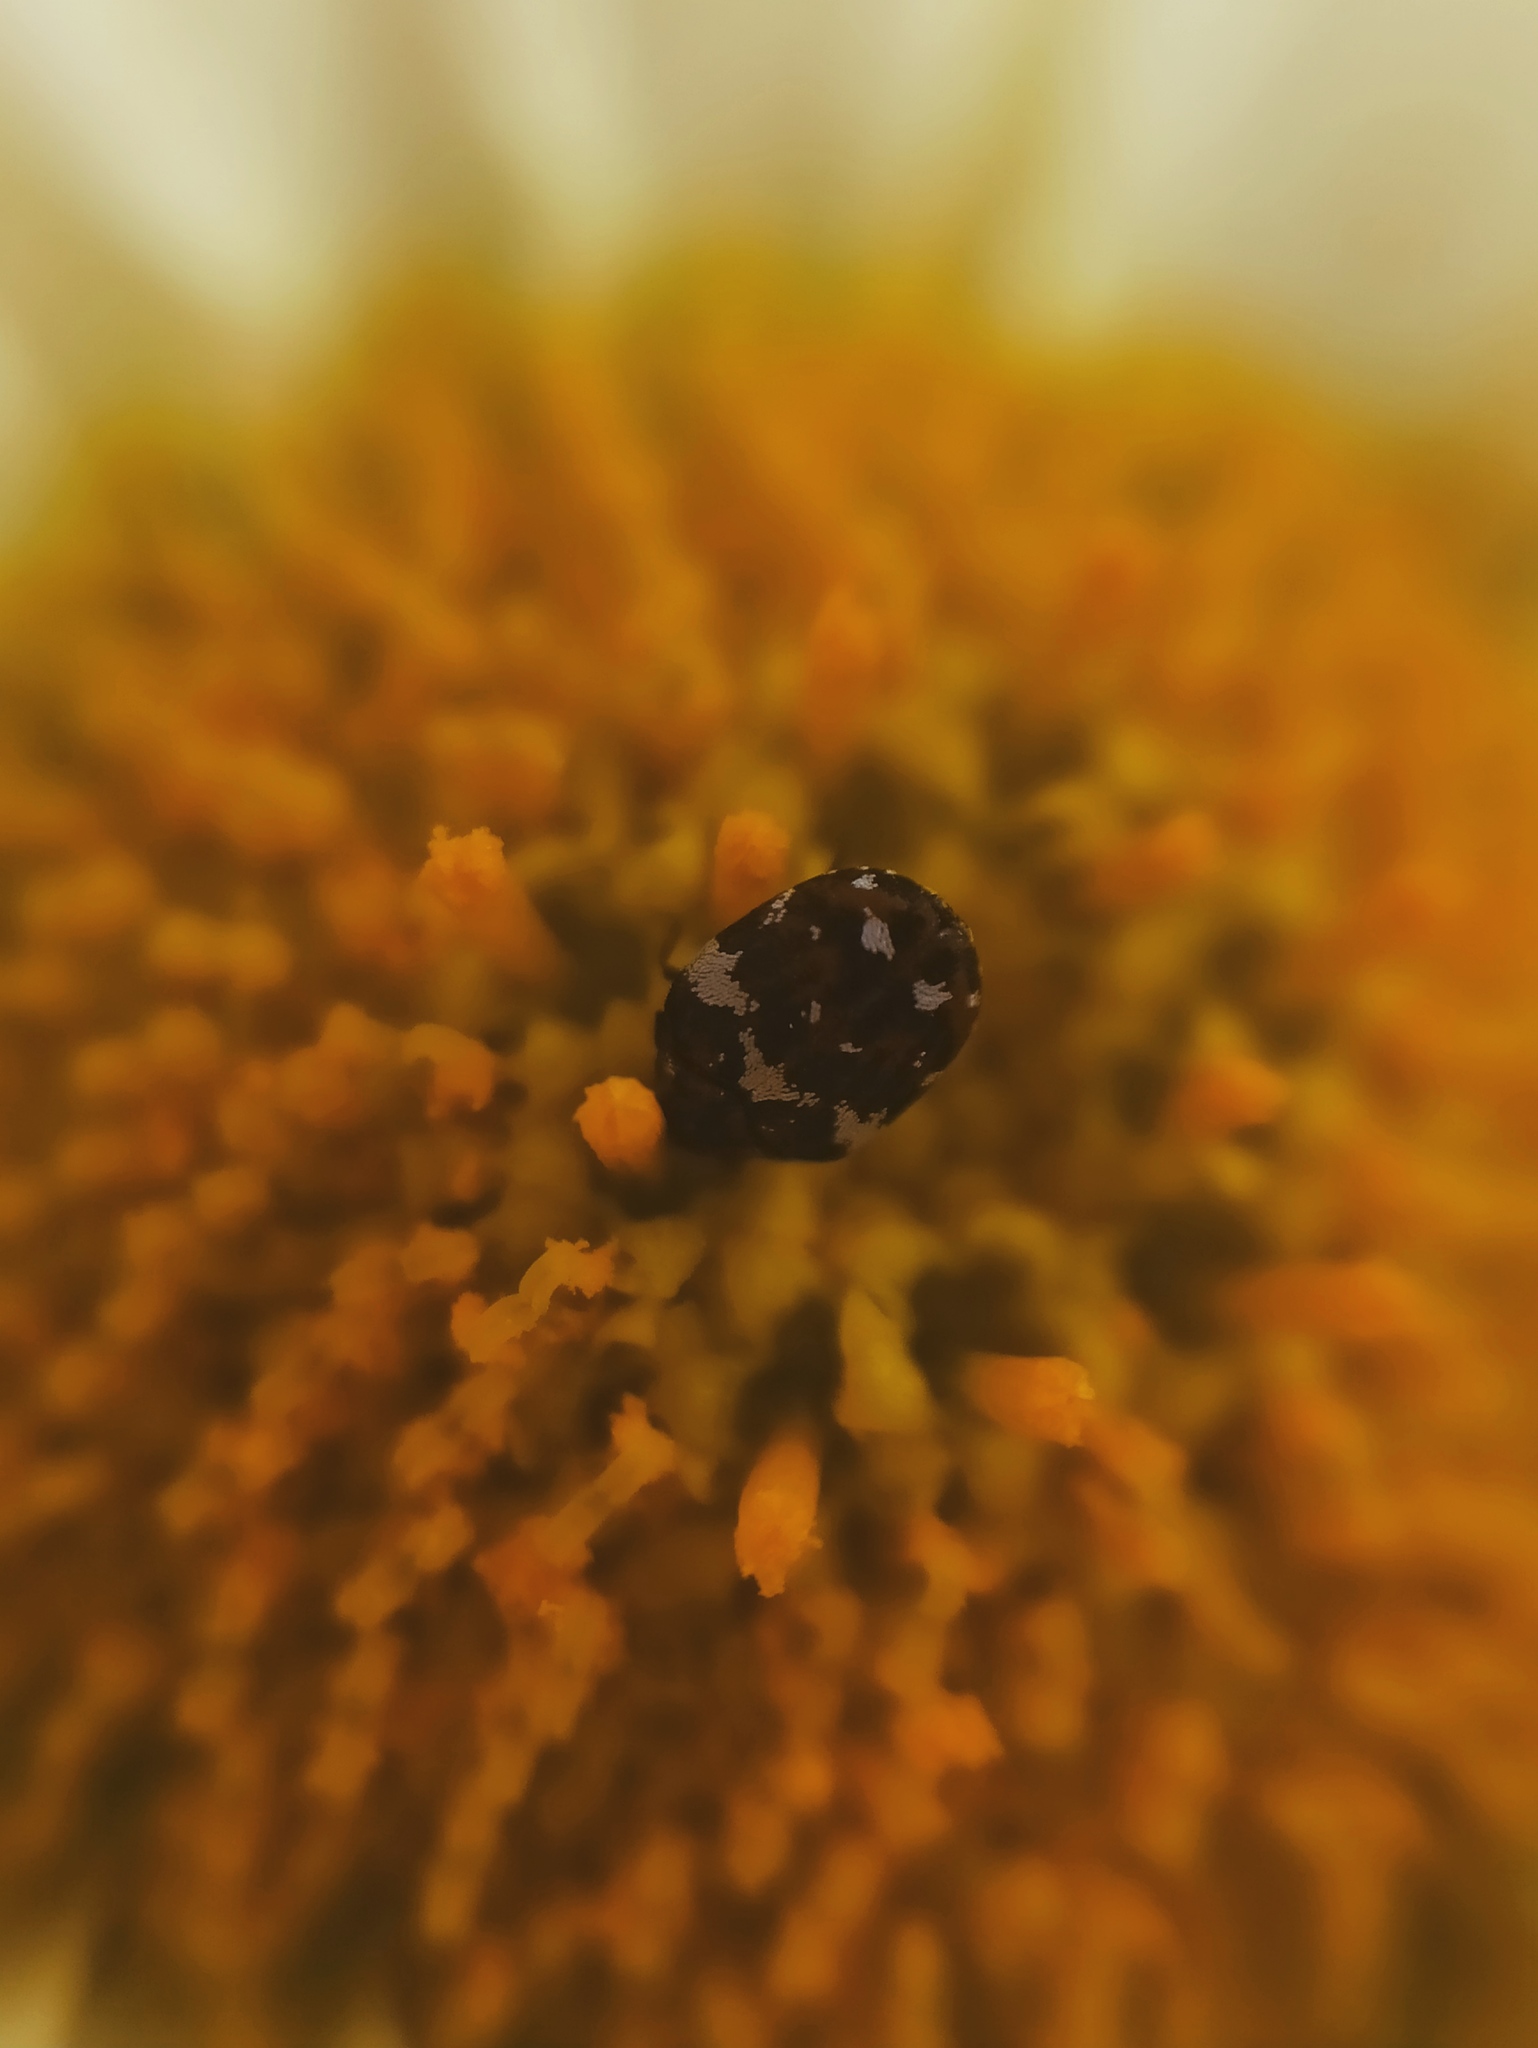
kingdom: Animalia
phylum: Arthropoda
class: Insecta
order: Coleoptera
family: Dermestidae
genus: Anthrenus
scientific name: Anthrenus angustefasciatus
